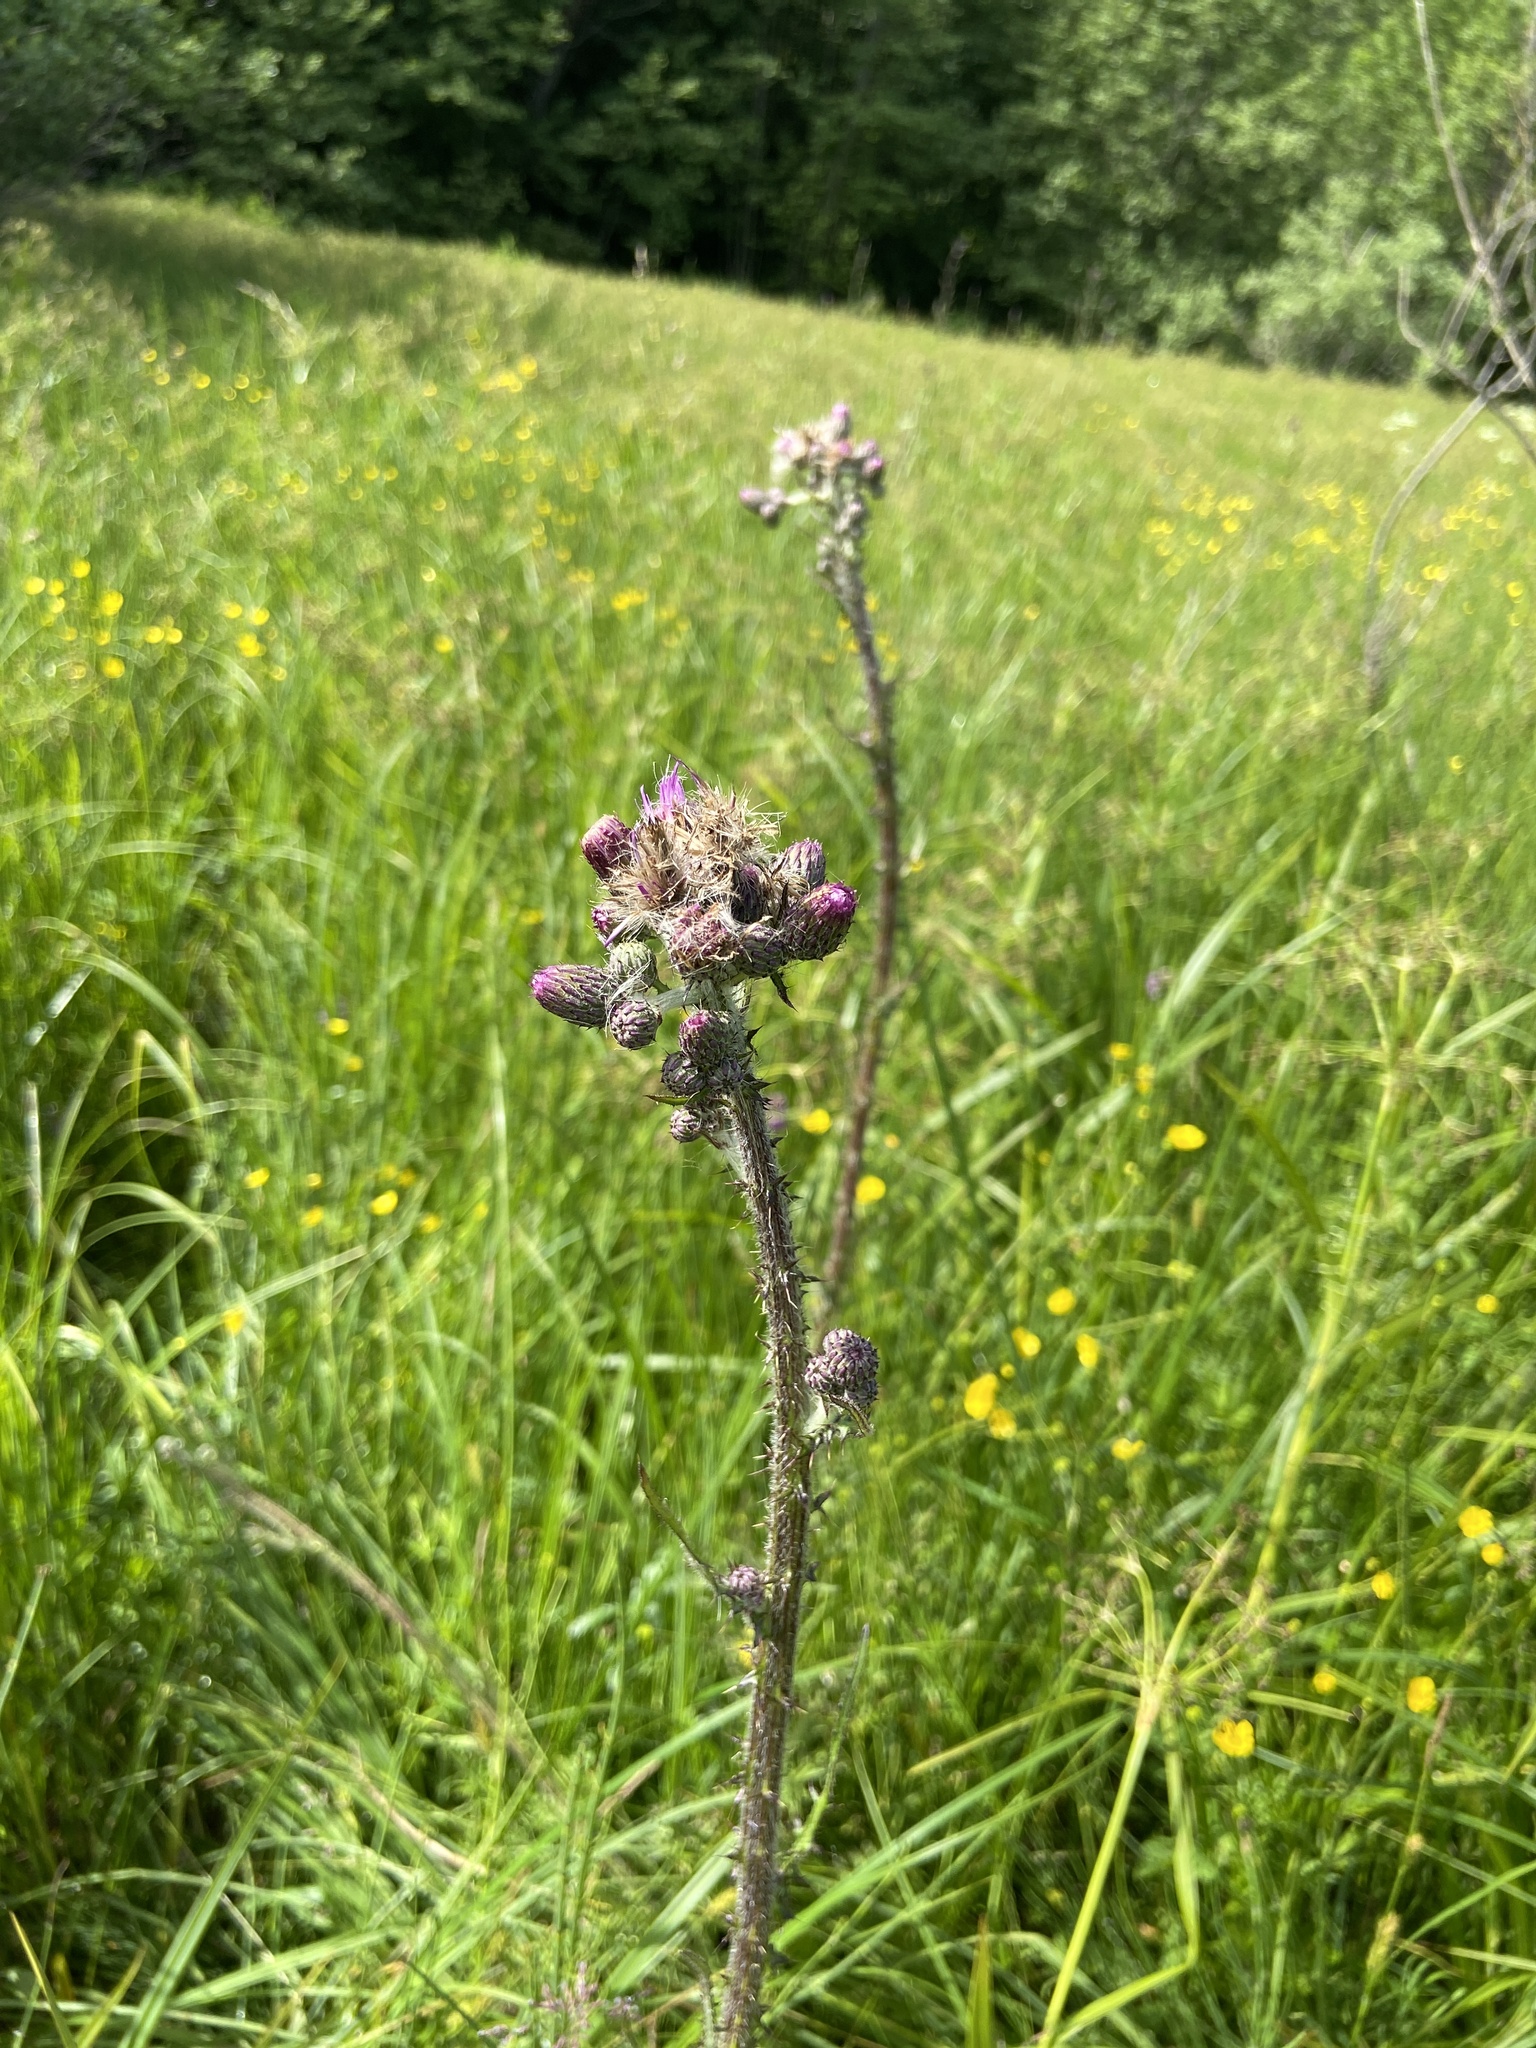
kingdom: Plantae
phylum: Tracheophyta
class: Magnoliopsida
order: Asterales
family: Asteraceae
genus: Cirsium
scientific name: Cirsium palustre
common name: Marsh thistle
